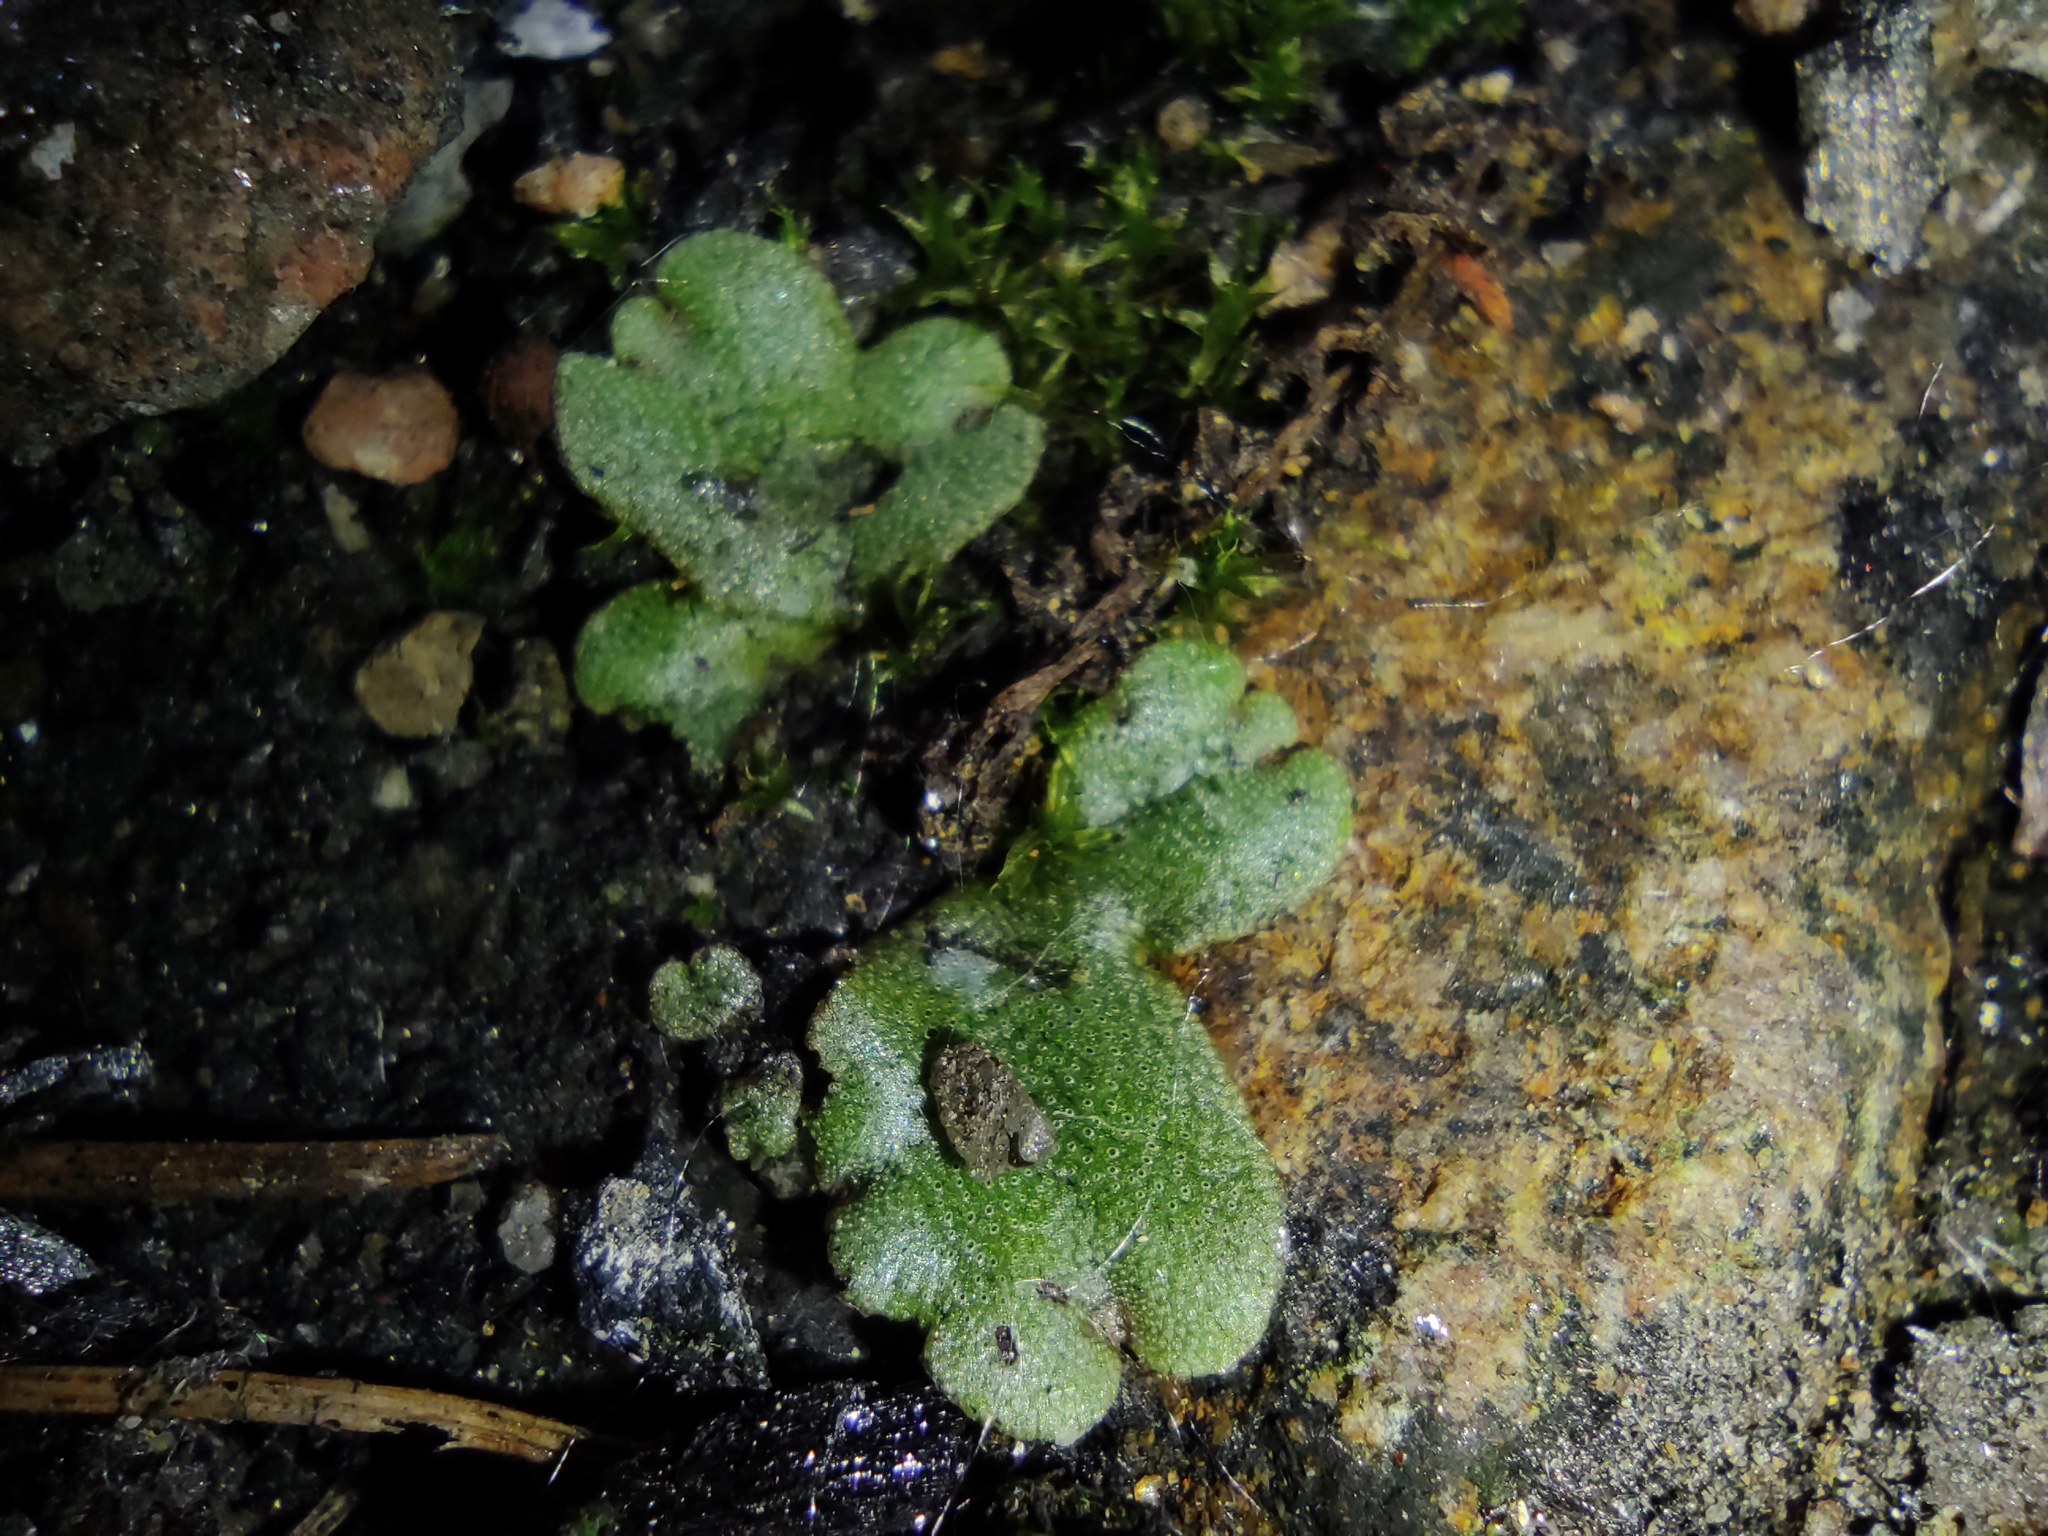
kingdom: Plantae
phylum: Marchantiophyta
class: Marchantiopsida
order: Marchantiales
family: Marchantiaceae
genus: Marchantia
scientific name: Marchantia polymorpha
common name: Common liverwort
